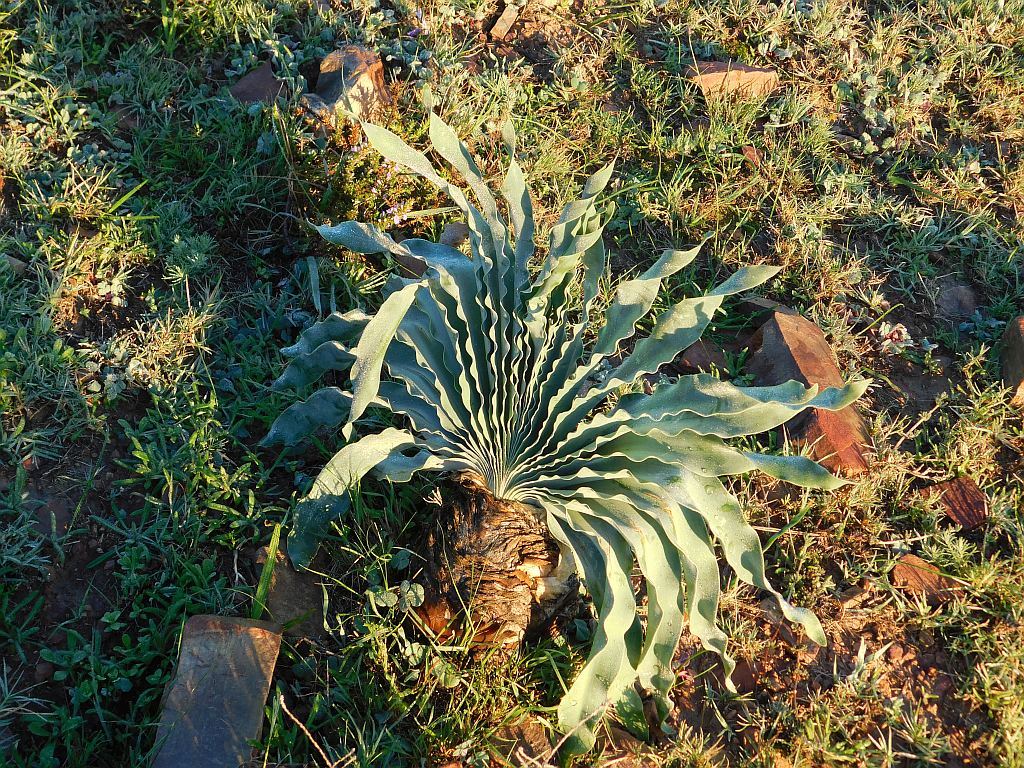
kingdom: Plantae
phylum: Tracheophyta
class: Liliopsida
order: Asparagales
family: Amaryllidaceae
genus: Boophone
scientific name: Boophone disticha
